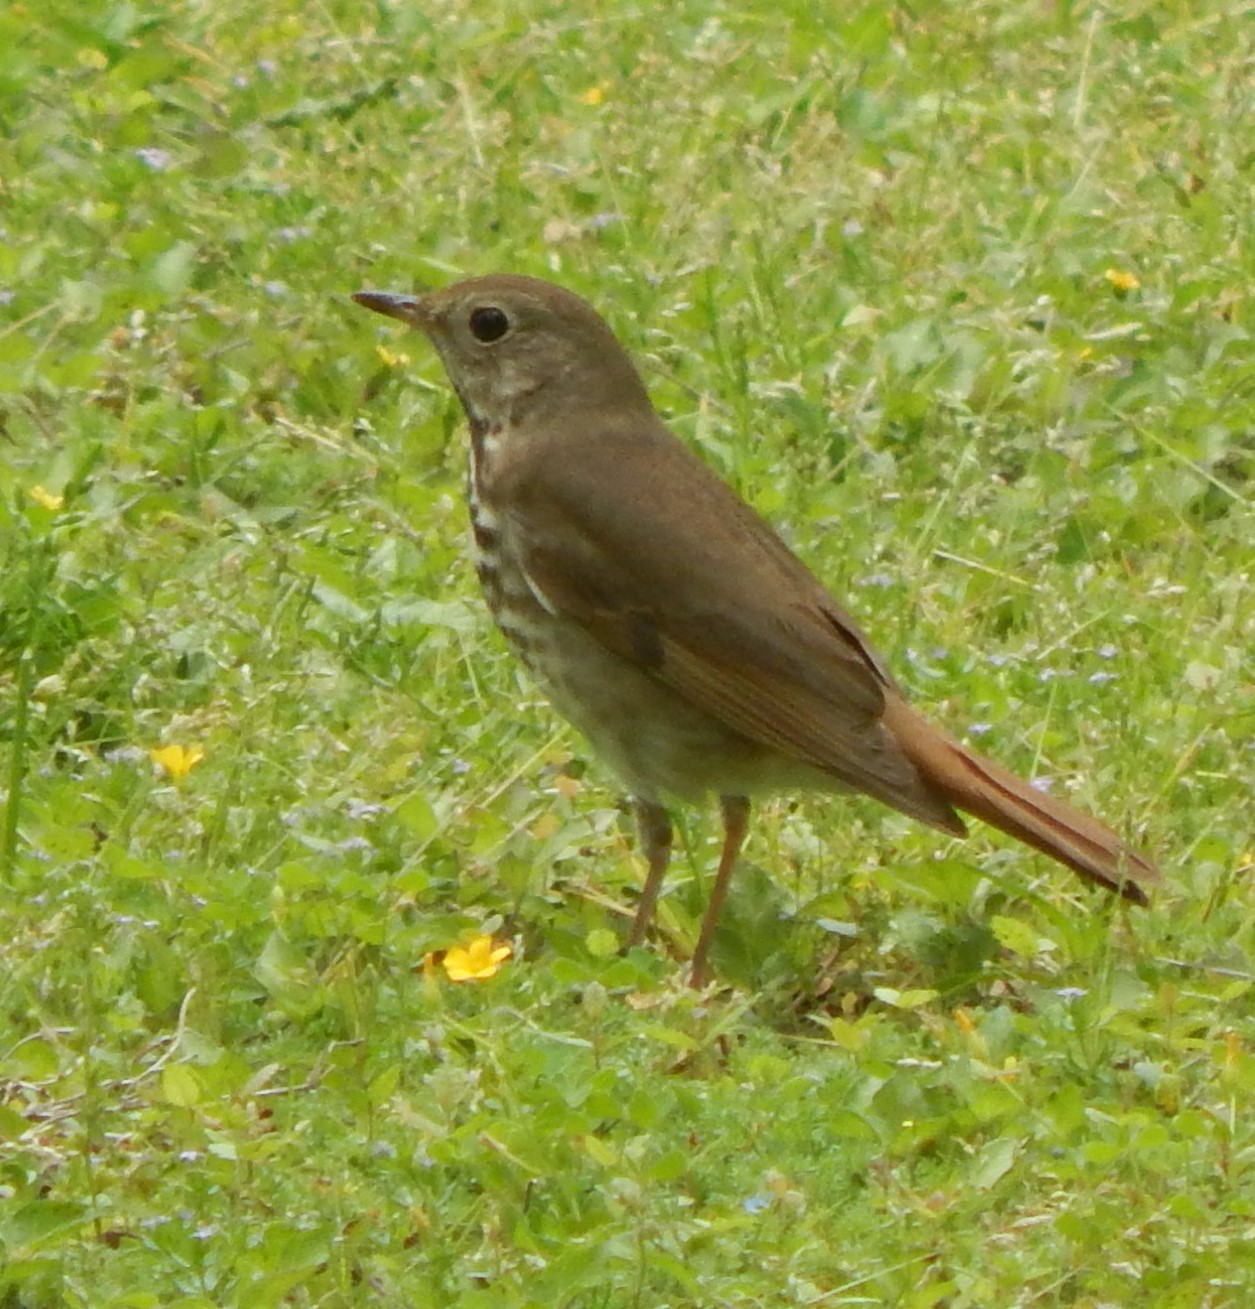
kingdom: Animalia
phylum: Chordata
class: Aves
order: Passeriformes
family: Turdidae
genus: Catharus
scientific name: Catharus guttatus
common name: Hermit thrush
